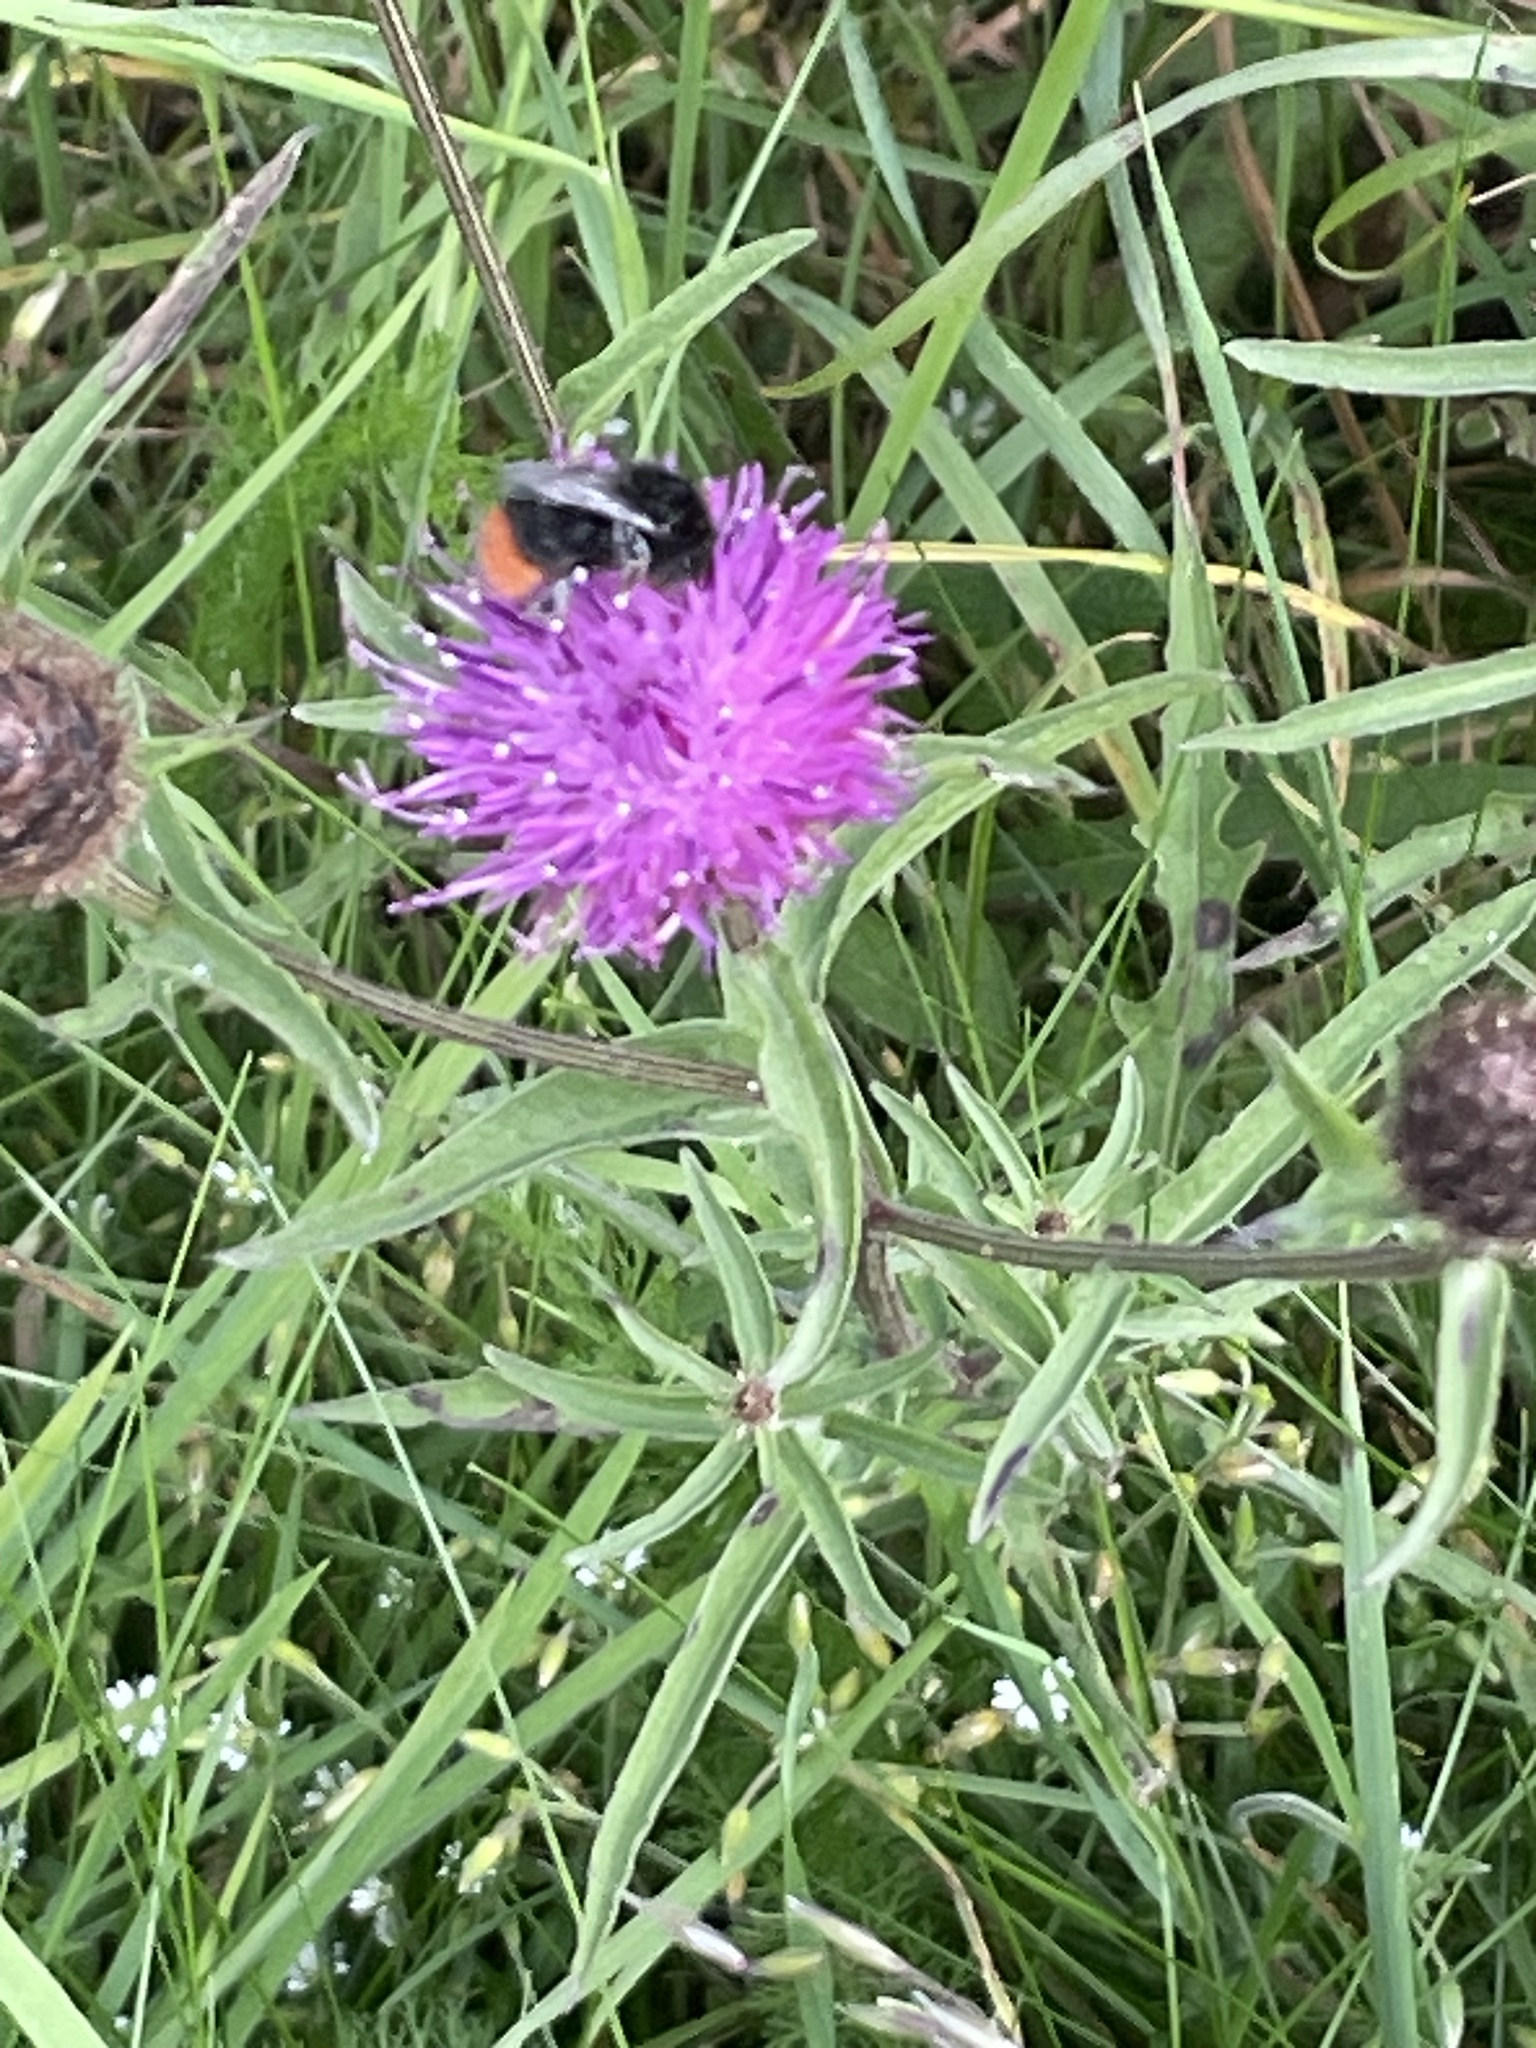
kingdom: Plantae
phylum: Tracheophyta
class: Magnoliopsida
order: Asterales
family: Asteraceae
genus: Centaurea
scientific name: Centaurea nigra
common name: Lesser knapweed
